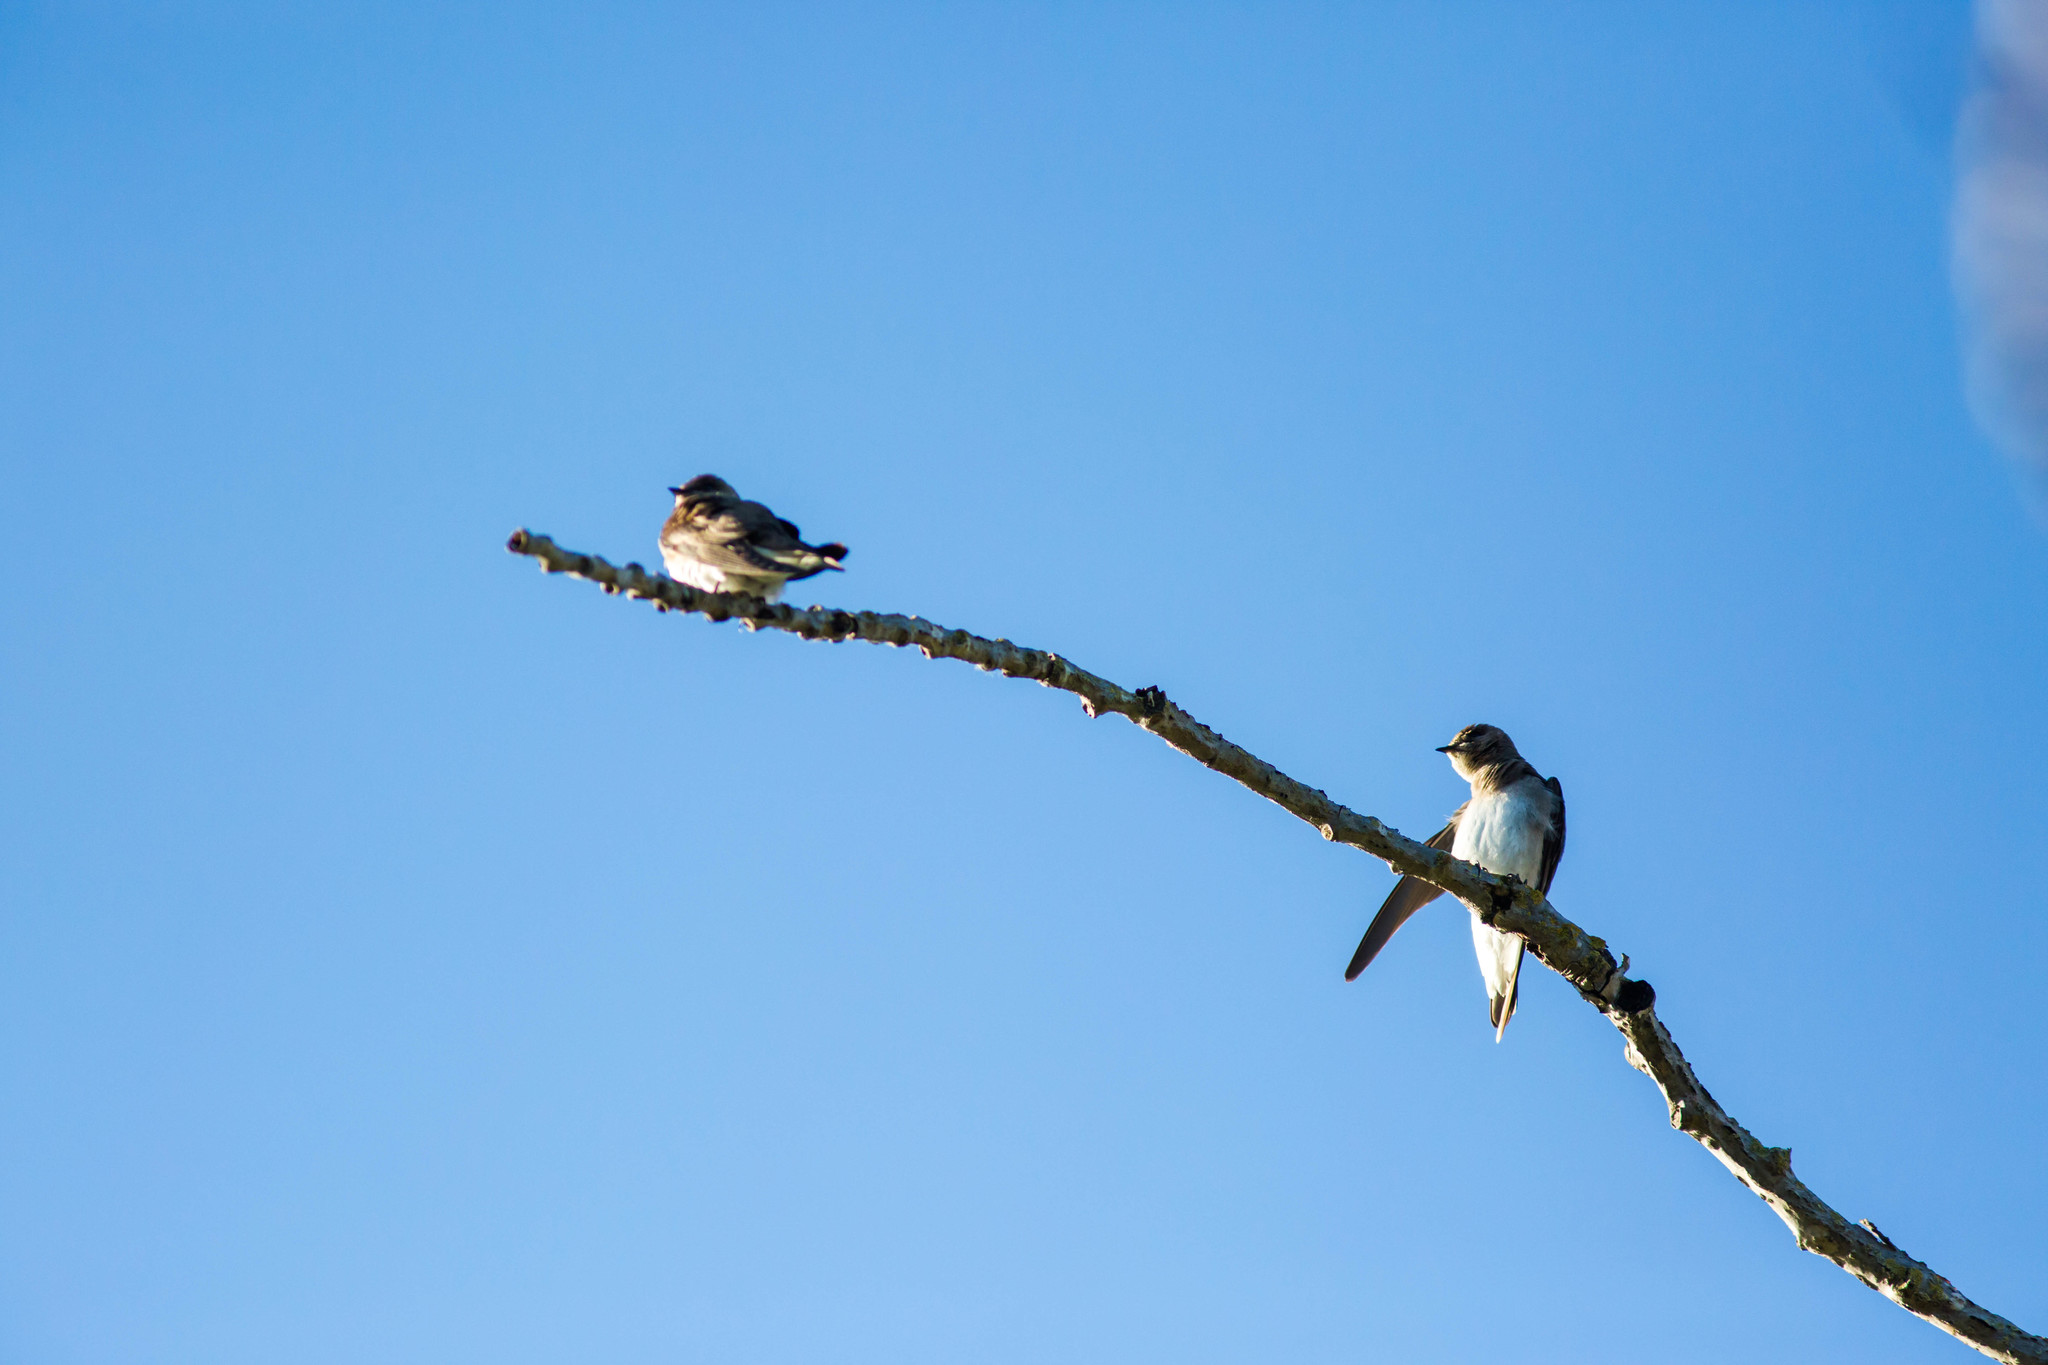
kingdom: Animalia
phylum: Chordata
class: Aves
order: Passeriformes
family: Hirundinidae
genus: Stelgidopteryx
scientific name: Stelgidopteryx serripennis
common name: Northern rough-winged swallow
